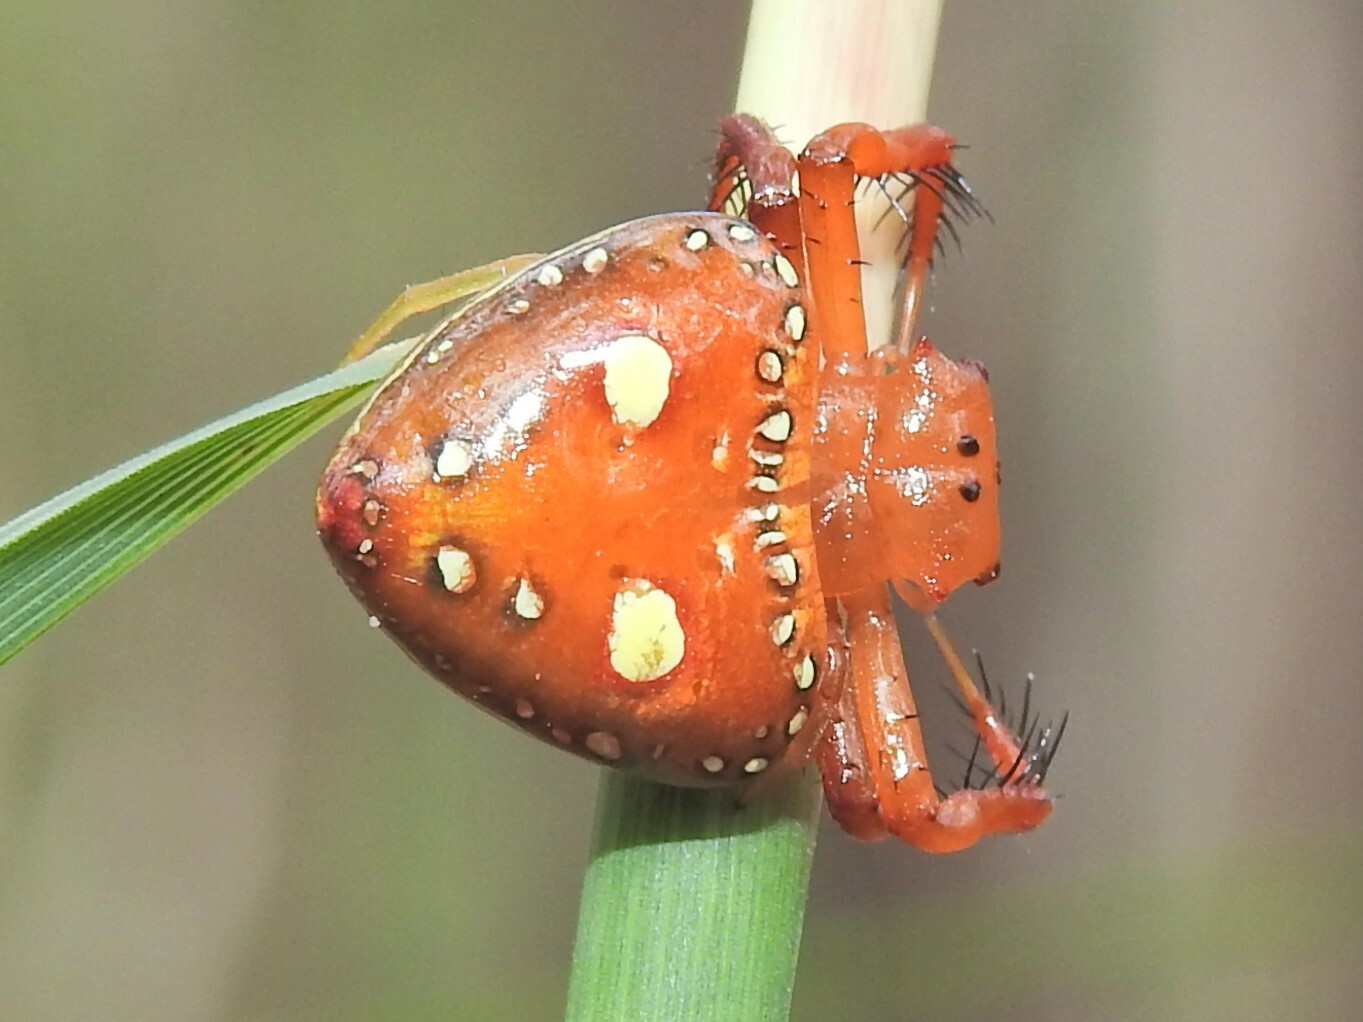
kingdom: Animalia
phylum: Arthropoda
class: Arachnida
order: Araneae
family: Arkyidae
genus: Arkys
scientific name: Arkys lancearius
